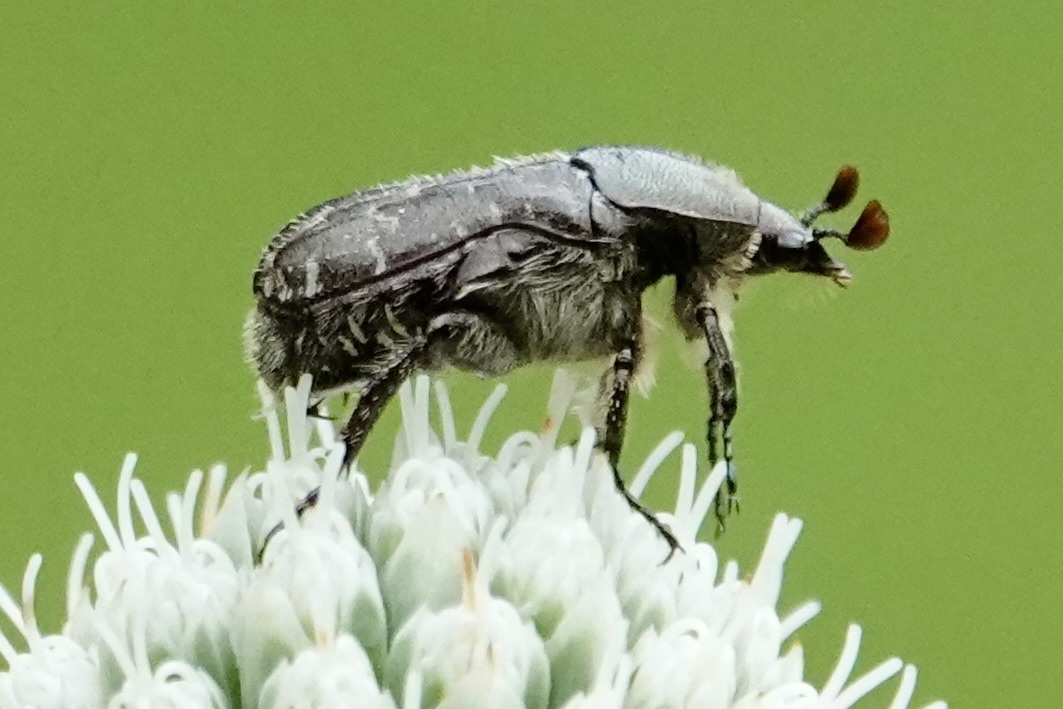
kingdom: Animalia
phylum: Arthropoda
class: Insecta
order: Coleoptera
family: Scarabaeidae
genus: Euphoria
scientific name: Euphoria sepulcralis
